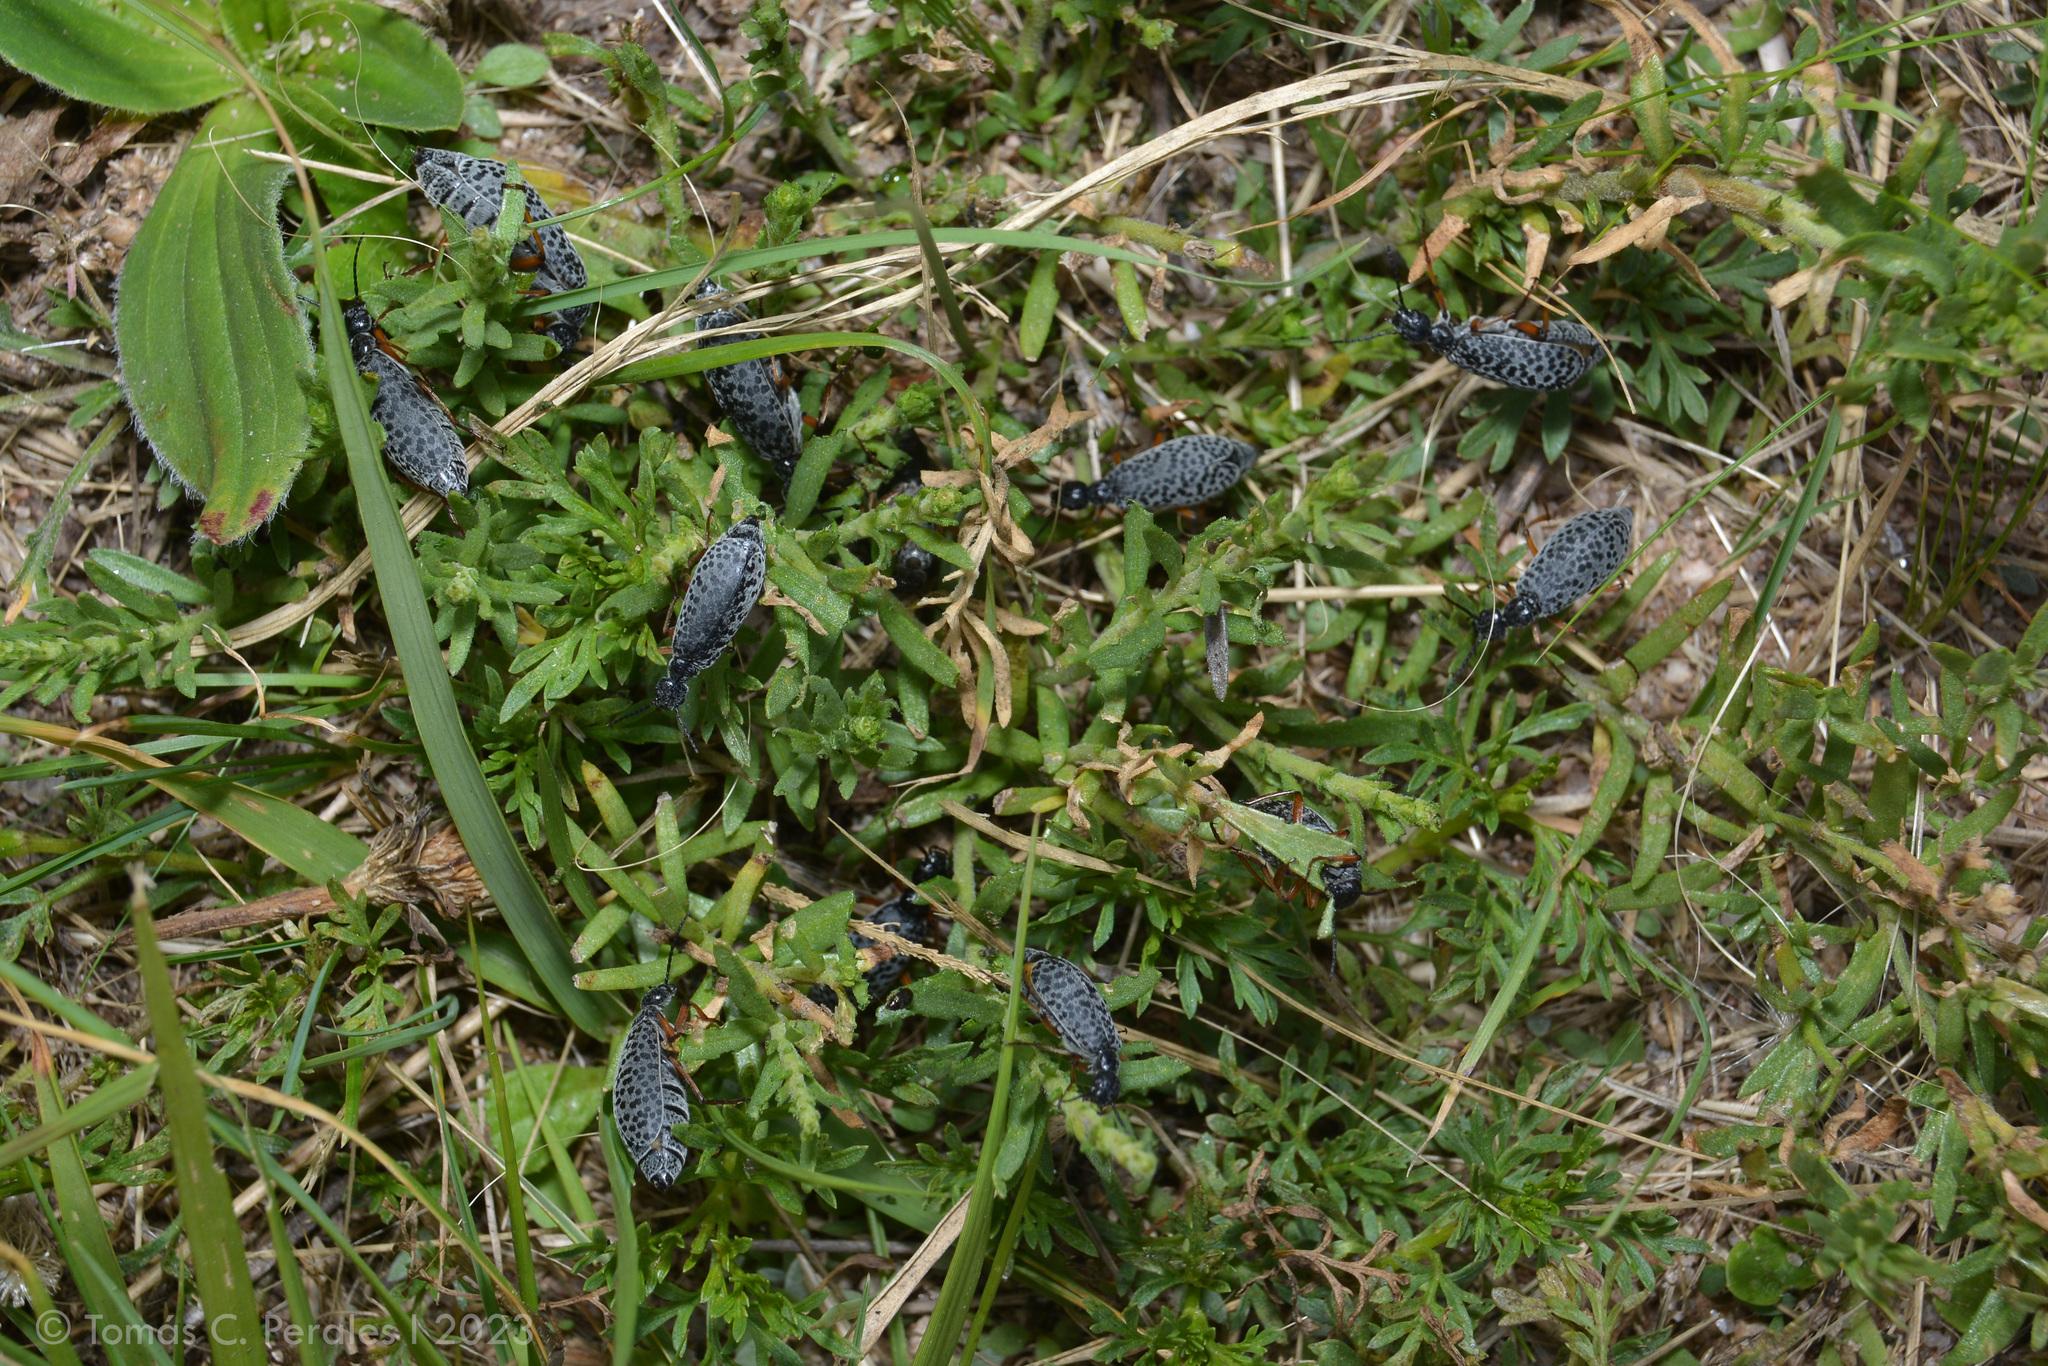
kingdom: Animalia
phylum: Arthropoda
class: Insecta
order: Coleoptera
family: Meloidae
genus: Epicauta
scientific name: Epicauta
